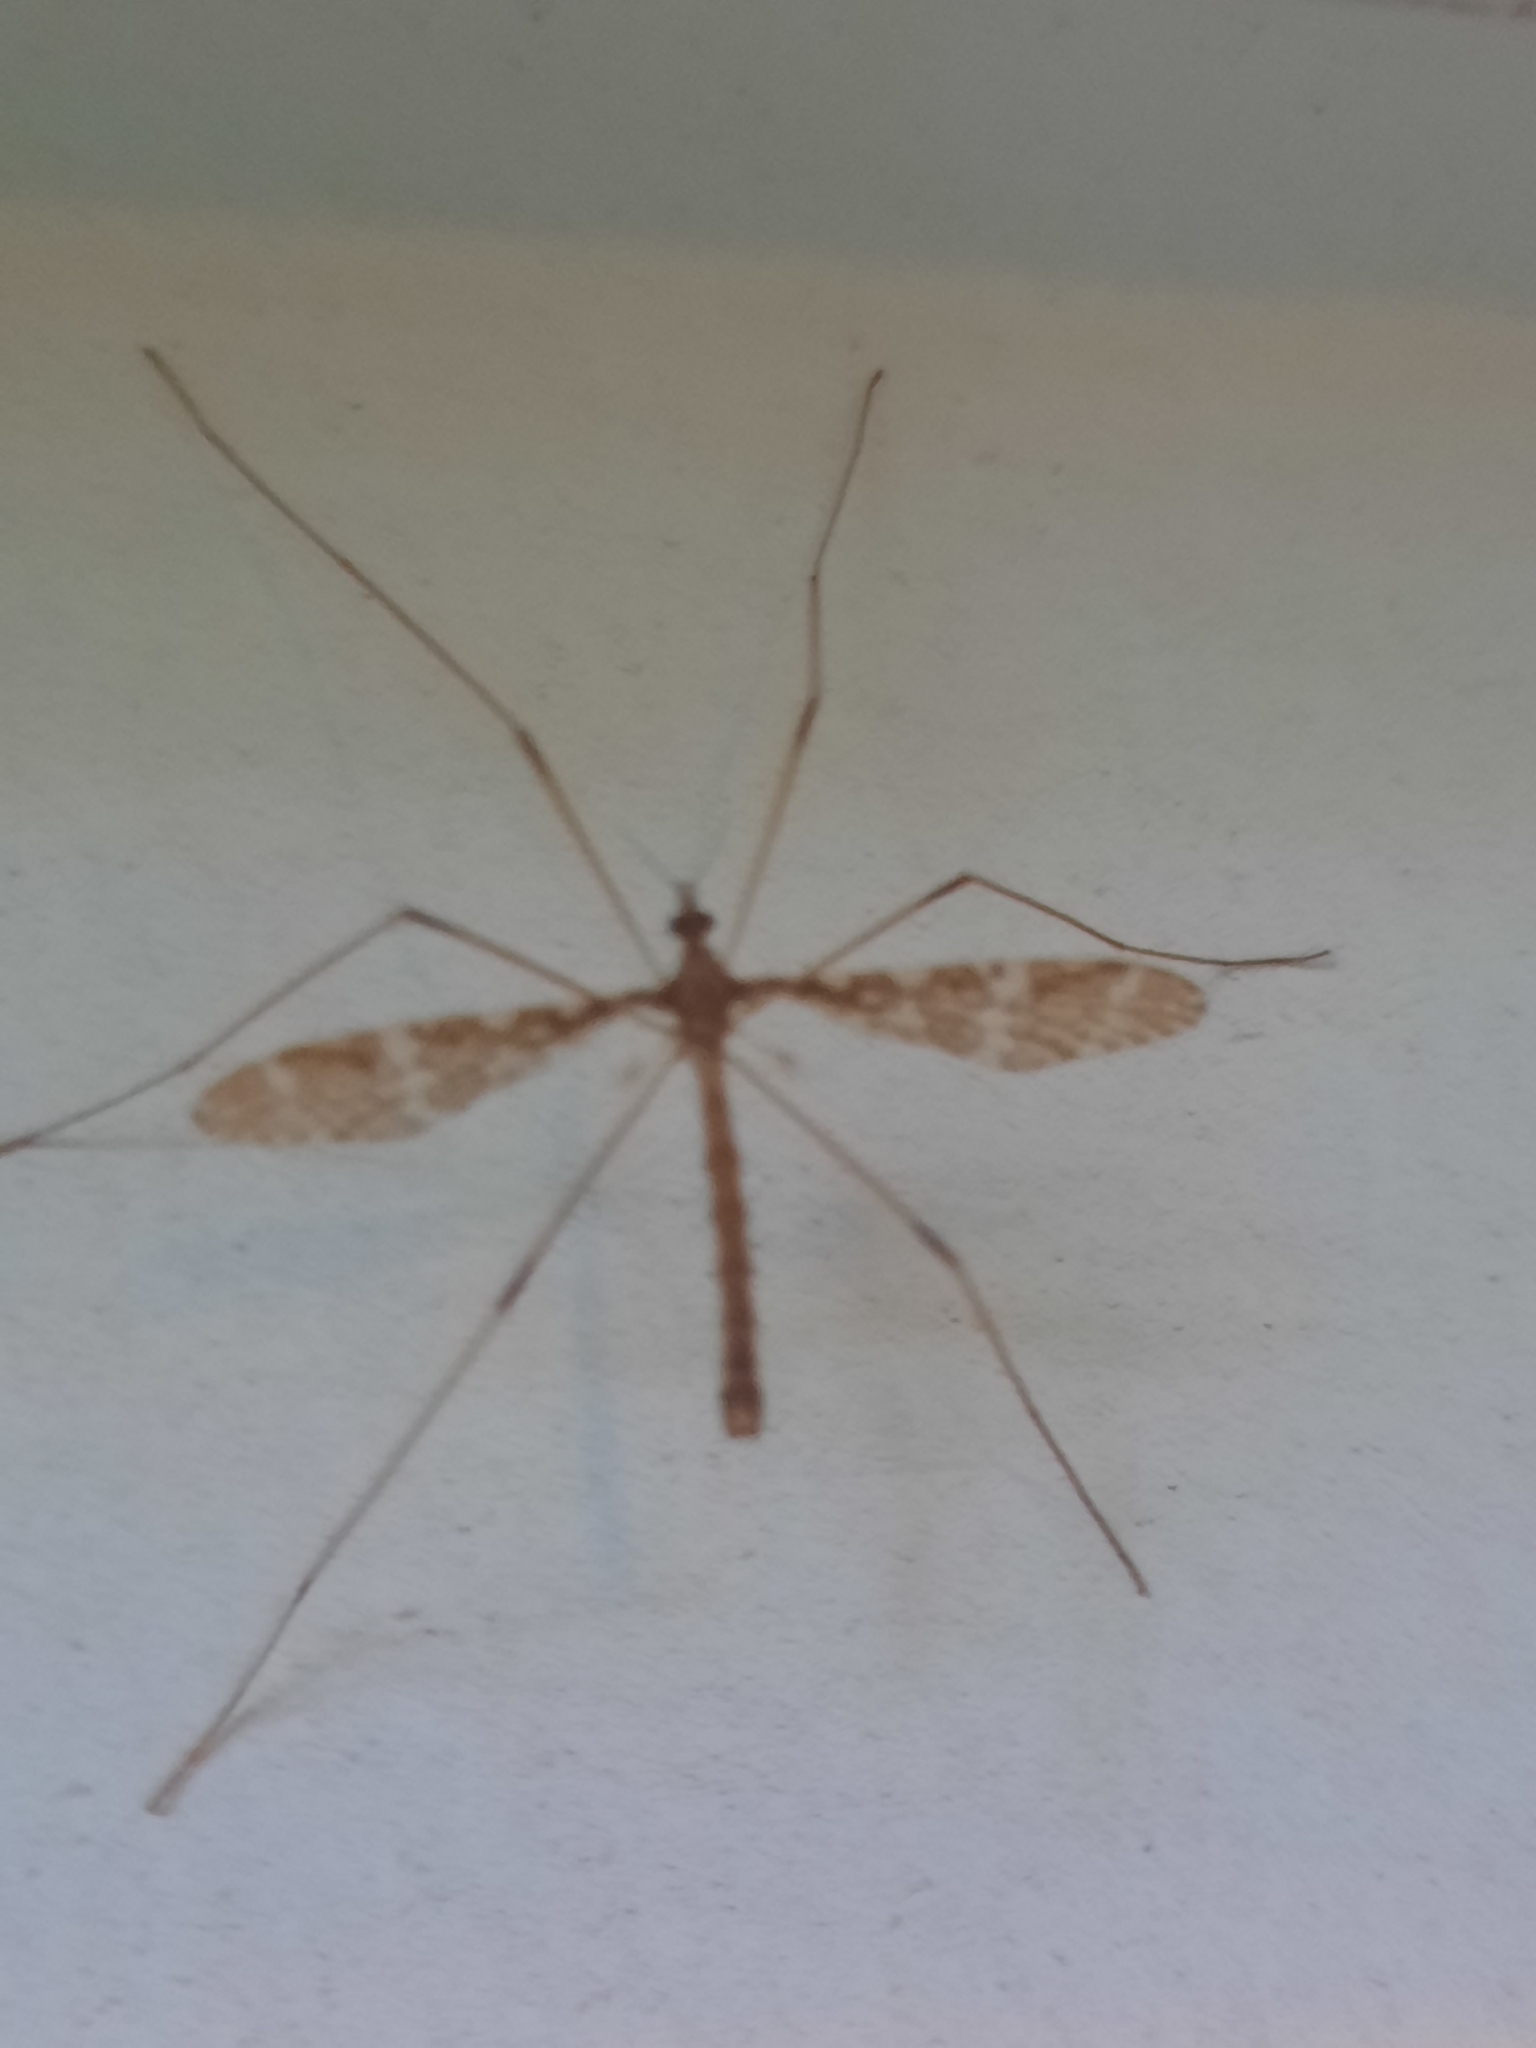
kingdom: Animalia
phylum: Arthropoda
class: Insecta
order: Diptera
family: Limoniidae
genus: Epiphragma
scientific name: Epiphragma fasciapenne
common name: Band-winged crane fly
